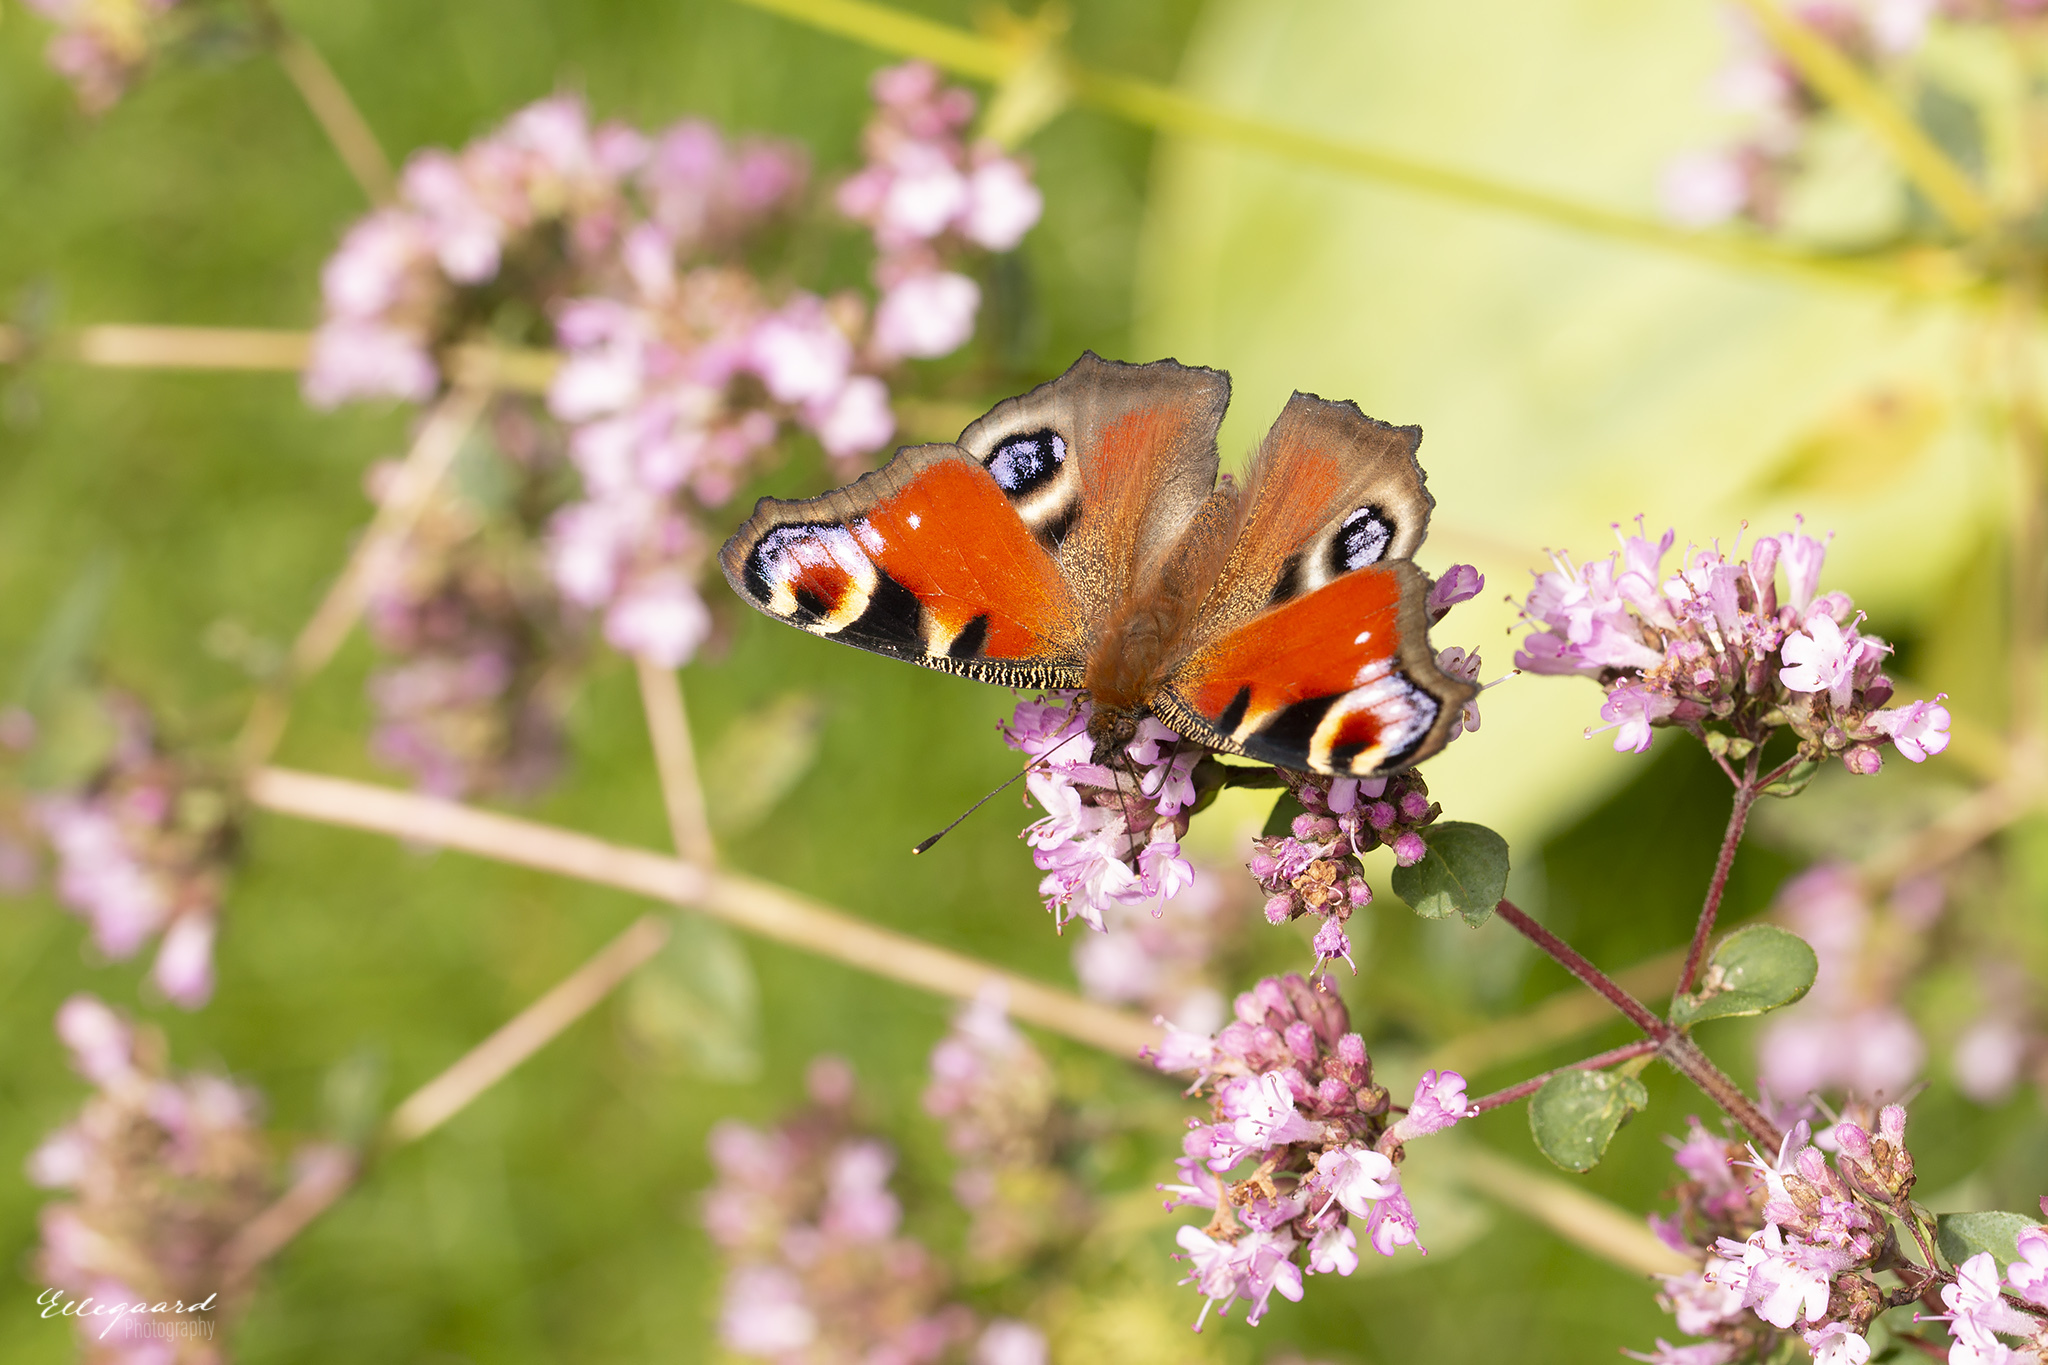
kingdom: Animalia
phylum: Arthropoda
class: Insecta
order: Lepidoptera
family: Nymphalidae
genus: Aglais
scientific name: Aglais io
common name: Peacock
